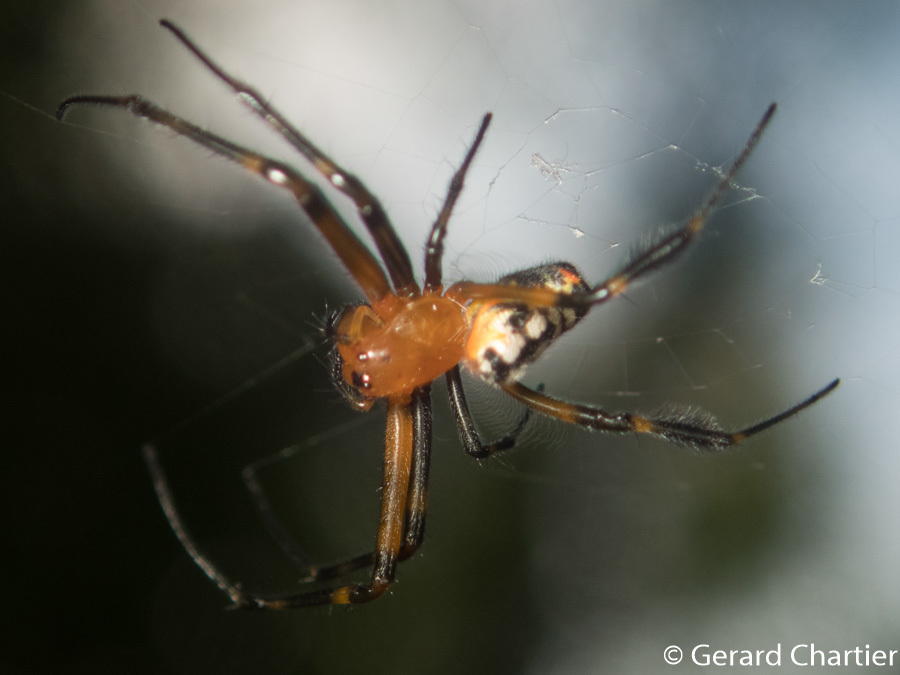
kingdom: Animalia
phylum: Arthropoda
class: Arachnida
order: Araneae
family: Tetragnathidae
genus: Leucauge
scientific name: Leucauge fastigata
